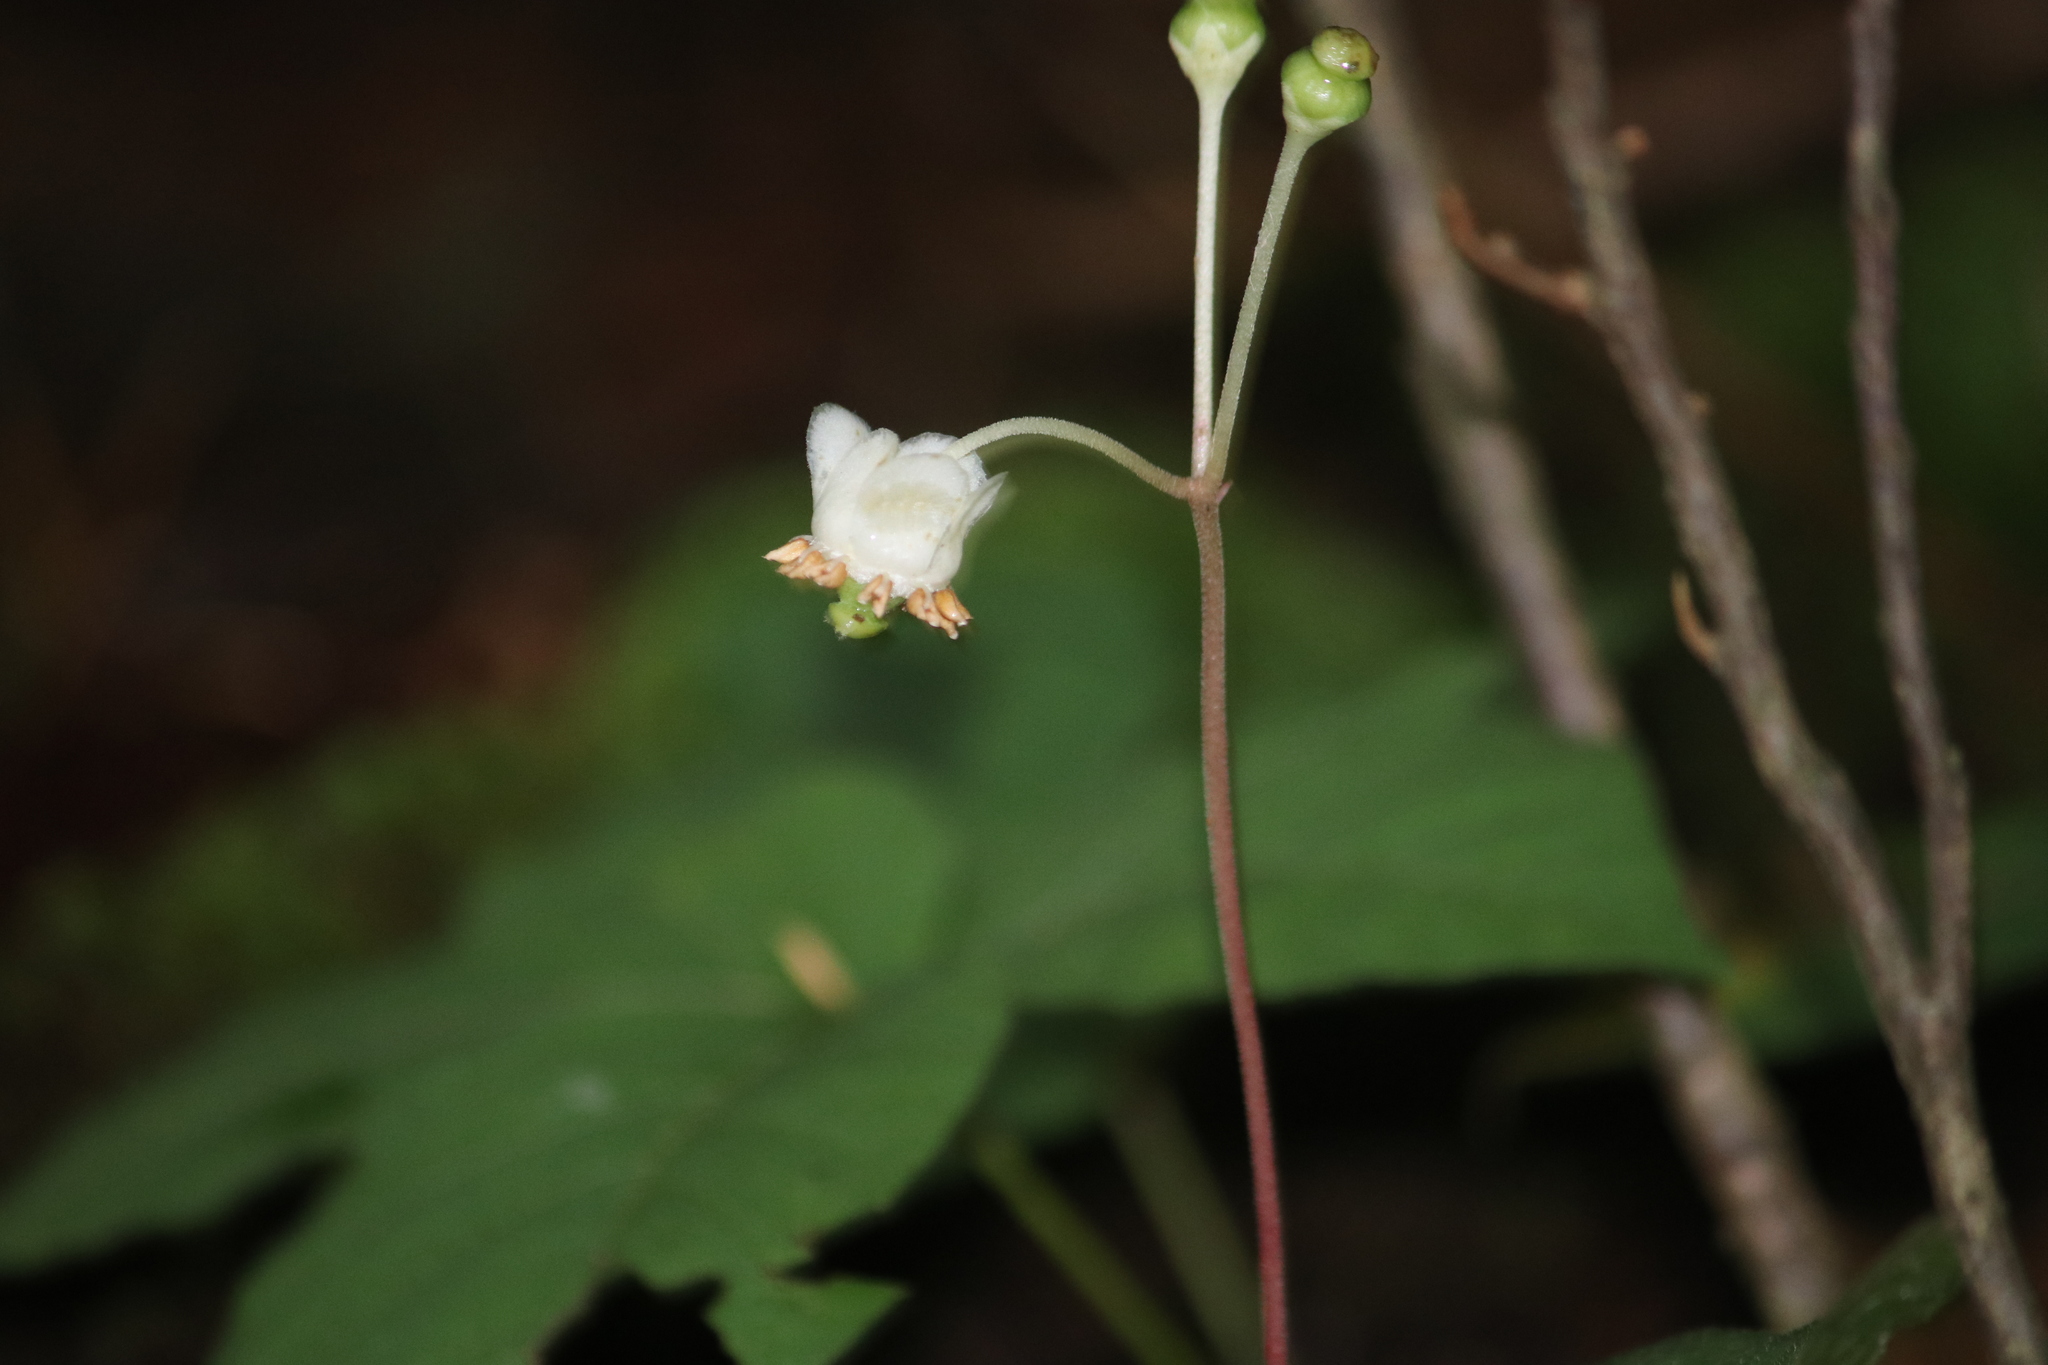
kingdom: Plantae
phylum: Tracheophyta
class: Magnoliopsida
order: Ericales
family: Ericaceae
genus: Chimaphila
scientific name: Chimaphila maculata
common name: Spotted pipsissewa
